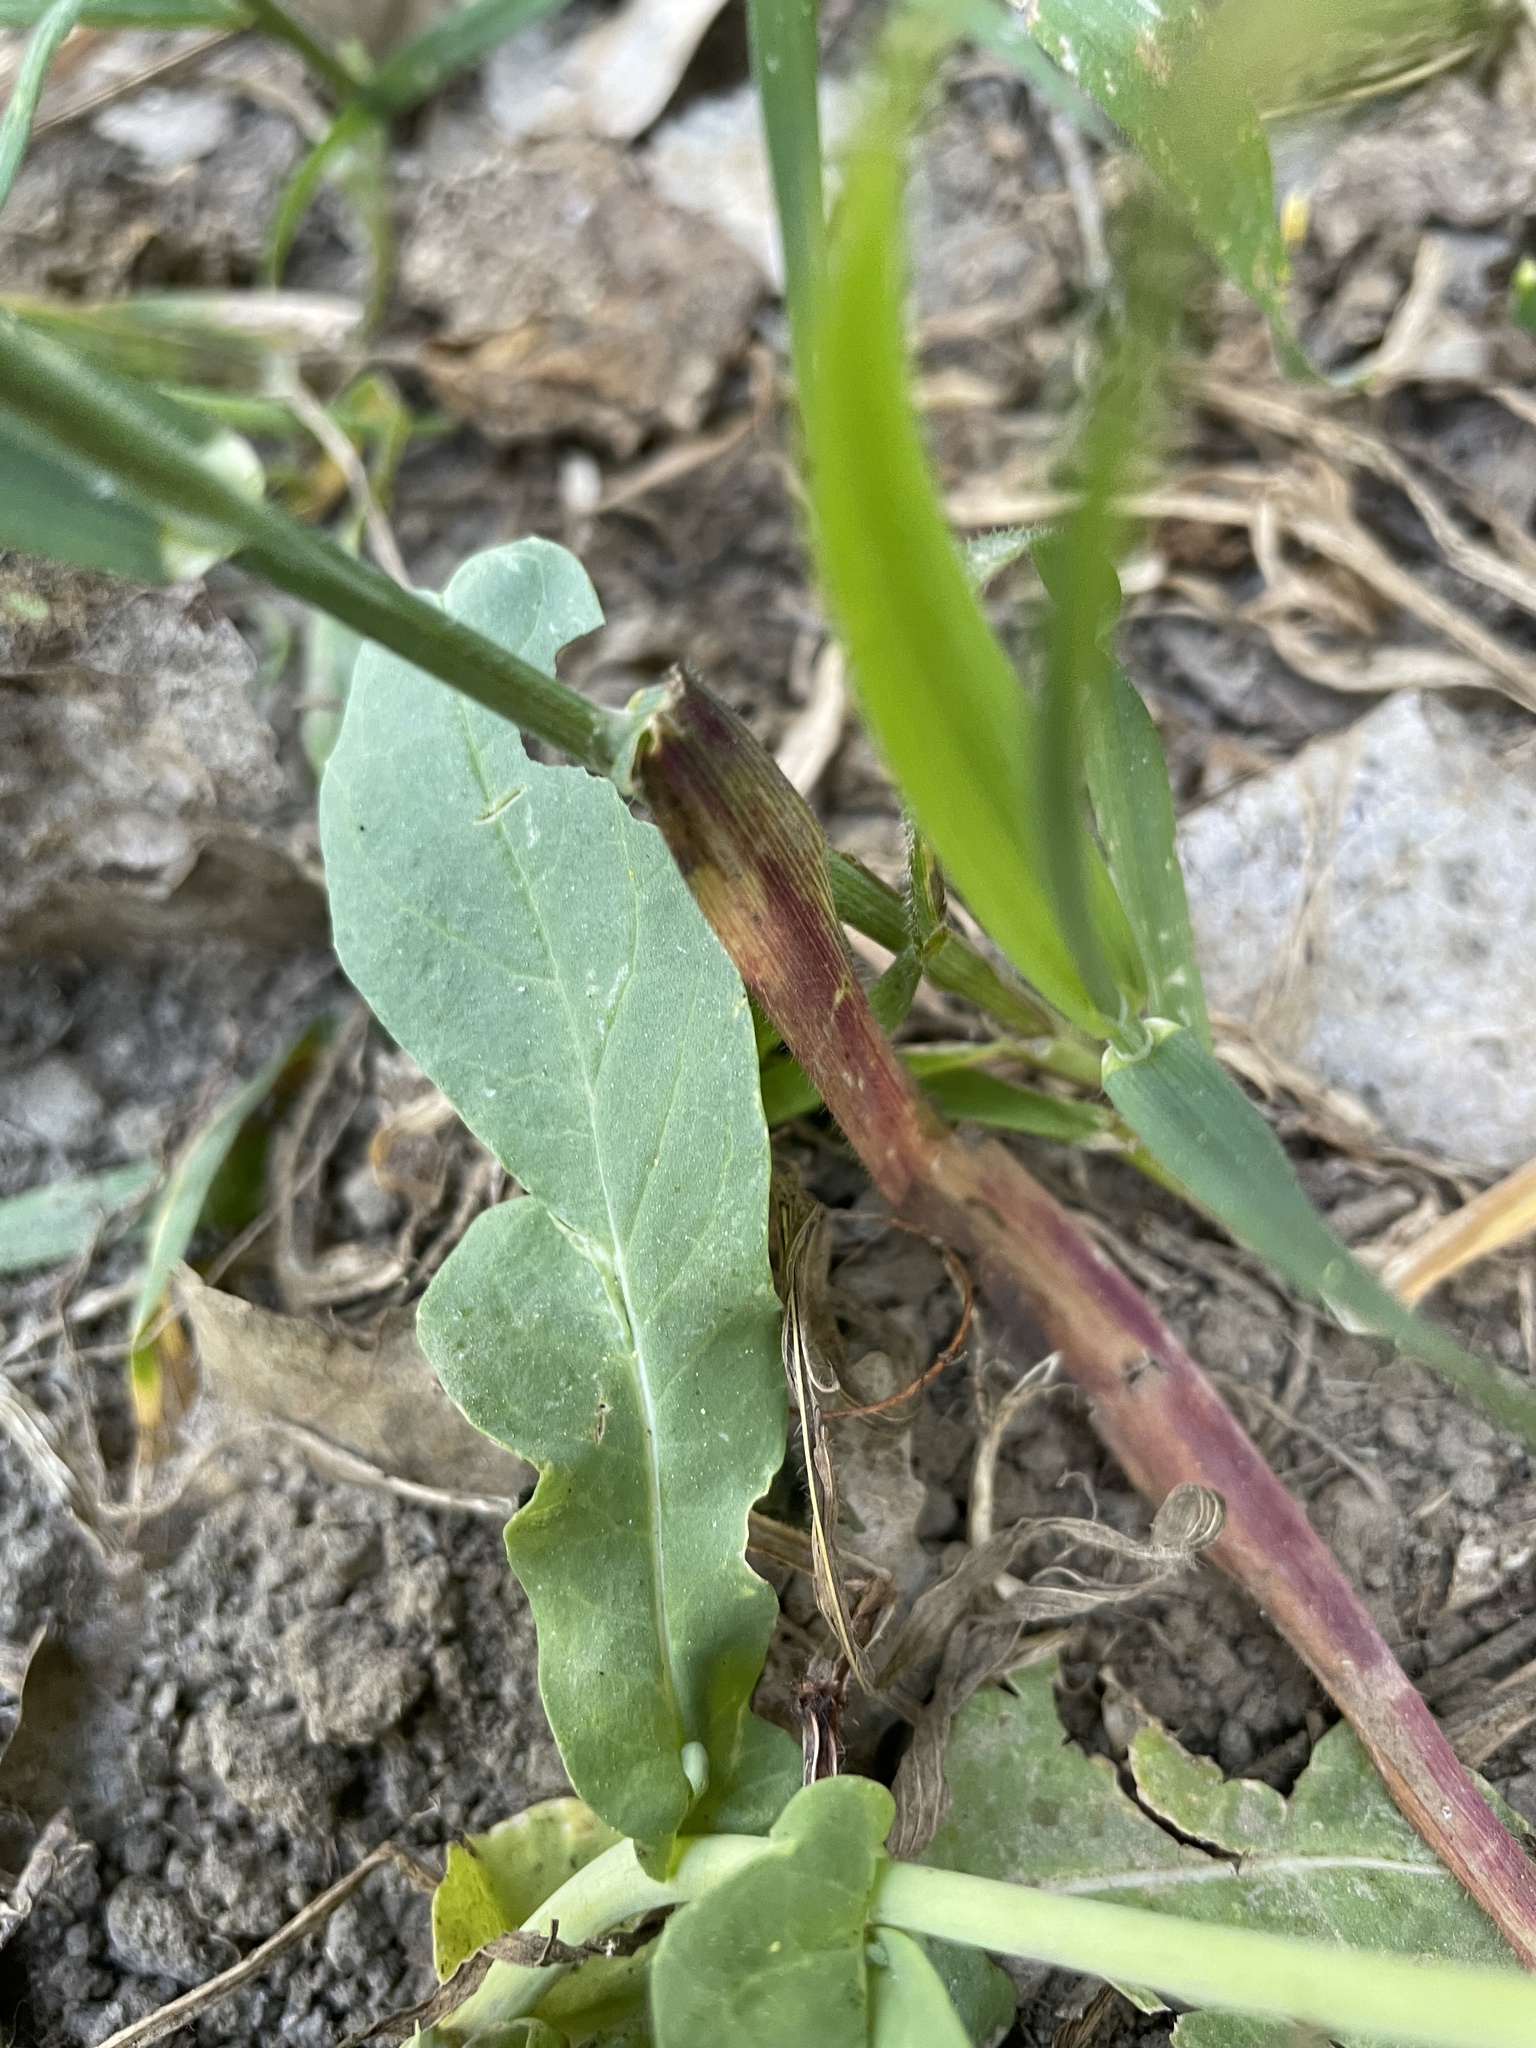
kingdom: Plantae
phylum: Tracheophyta
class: Magnoliopsida
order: Brassicales
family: Brassicaceae
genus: Brassica
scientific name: Brassica rapa
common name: Field mustard
